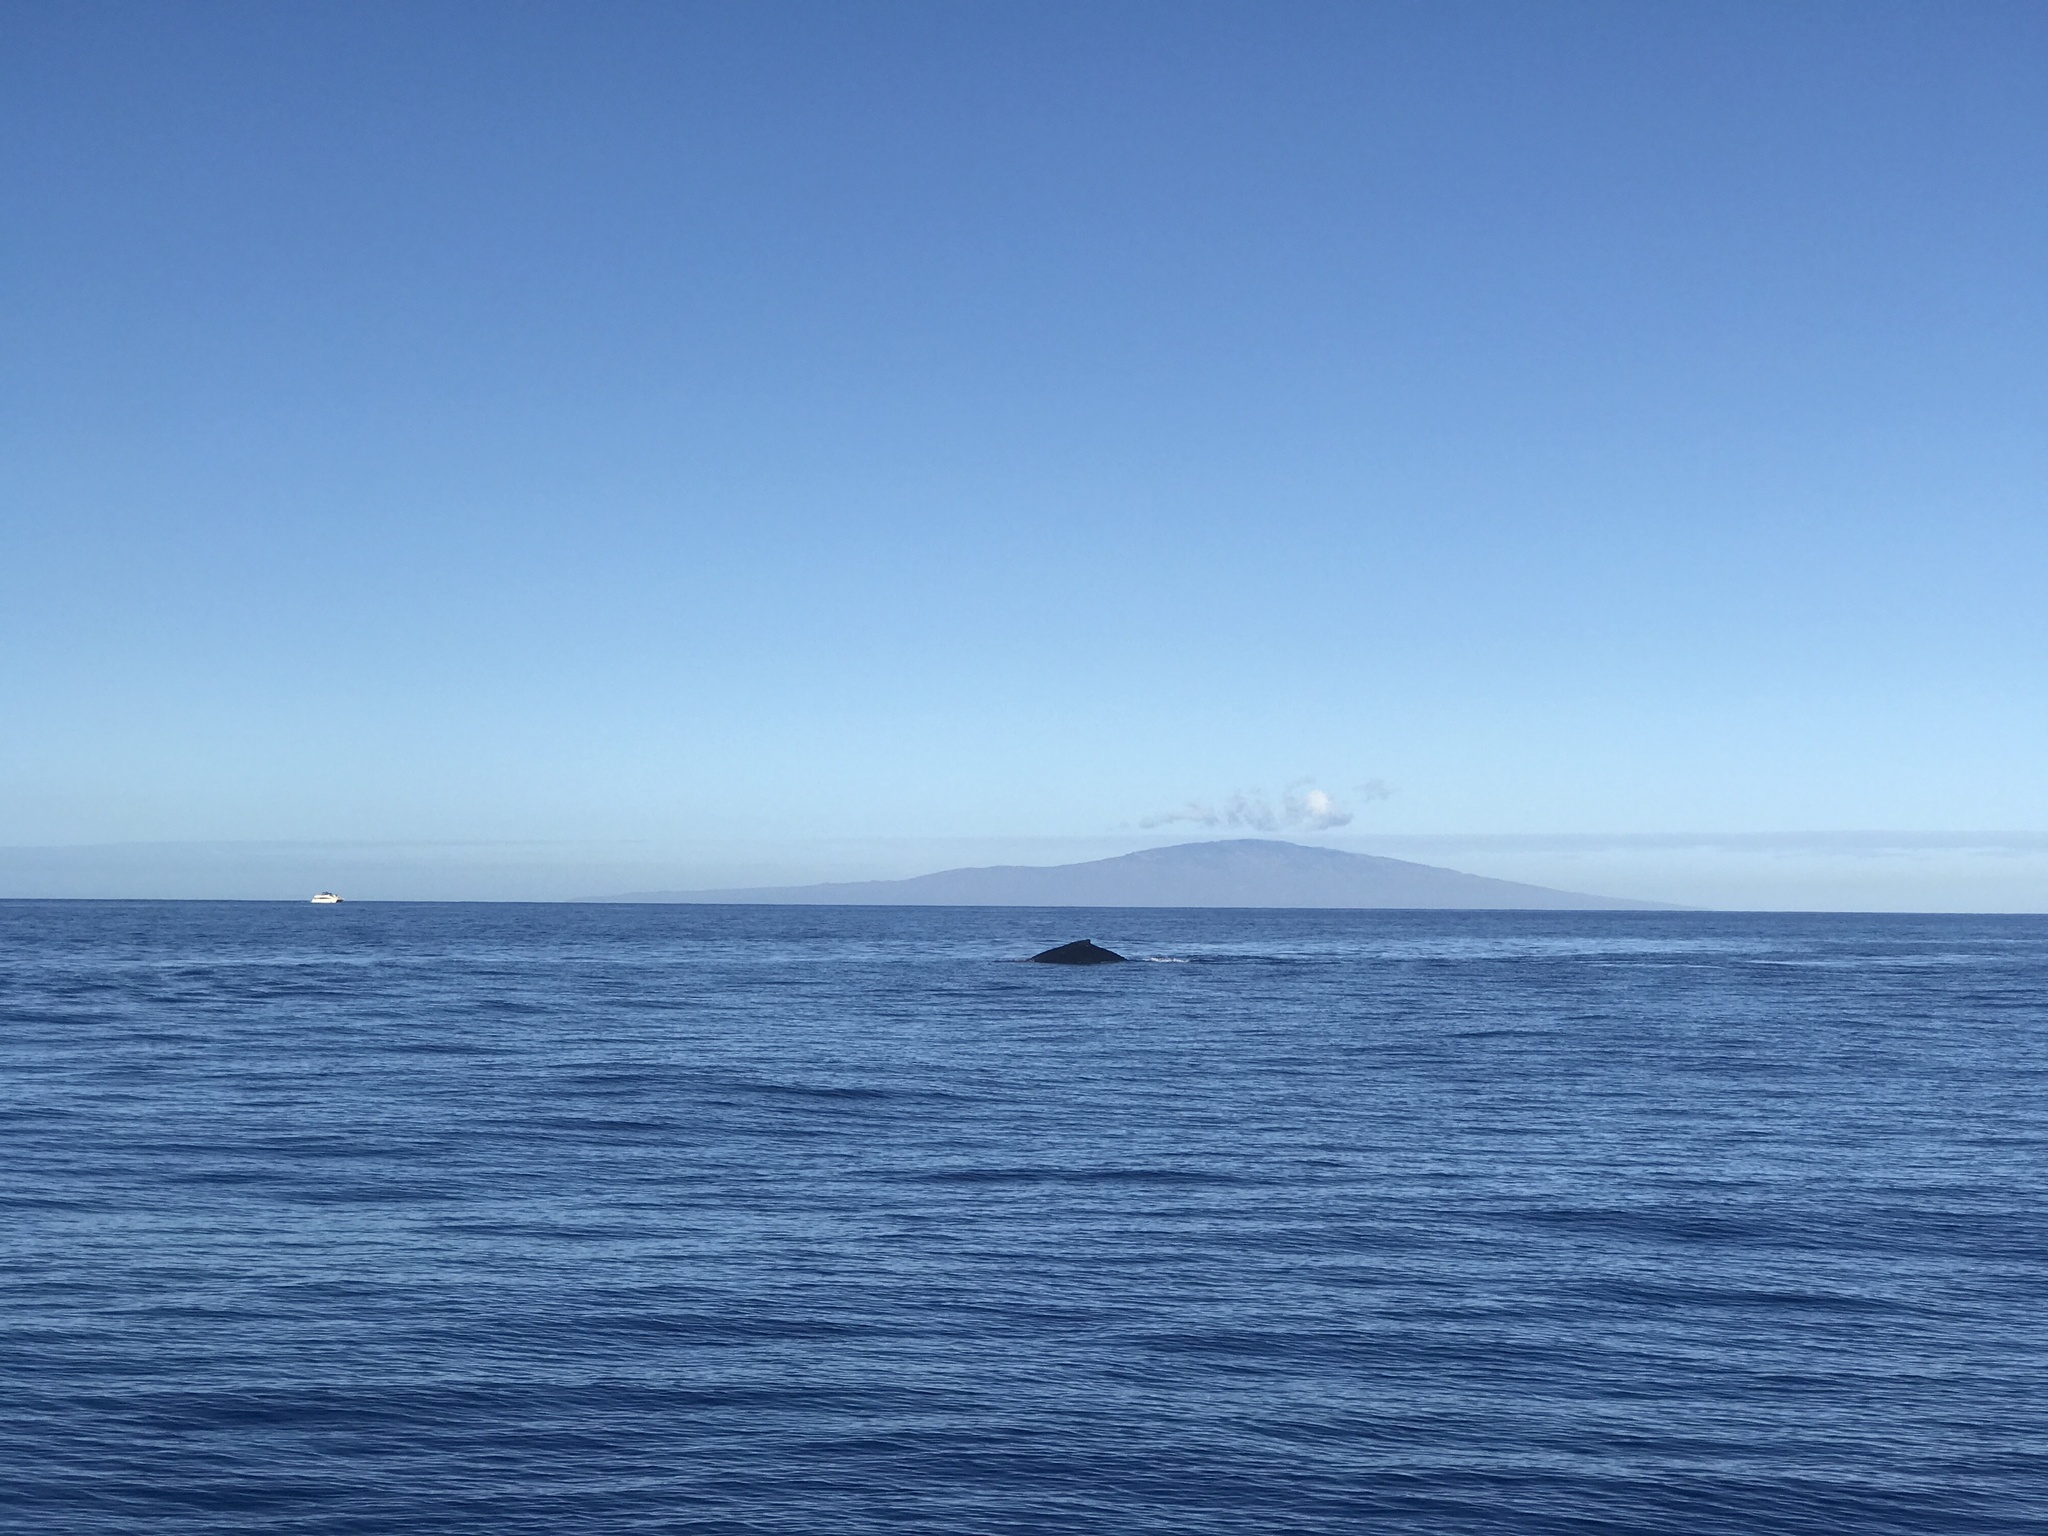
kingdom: Animalia
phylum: Chordata
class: Mammalia
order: Cetacea
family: Balaenopteridae
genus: Megaptera
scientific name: Megaptera novaeangliae
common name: Humpback whale
